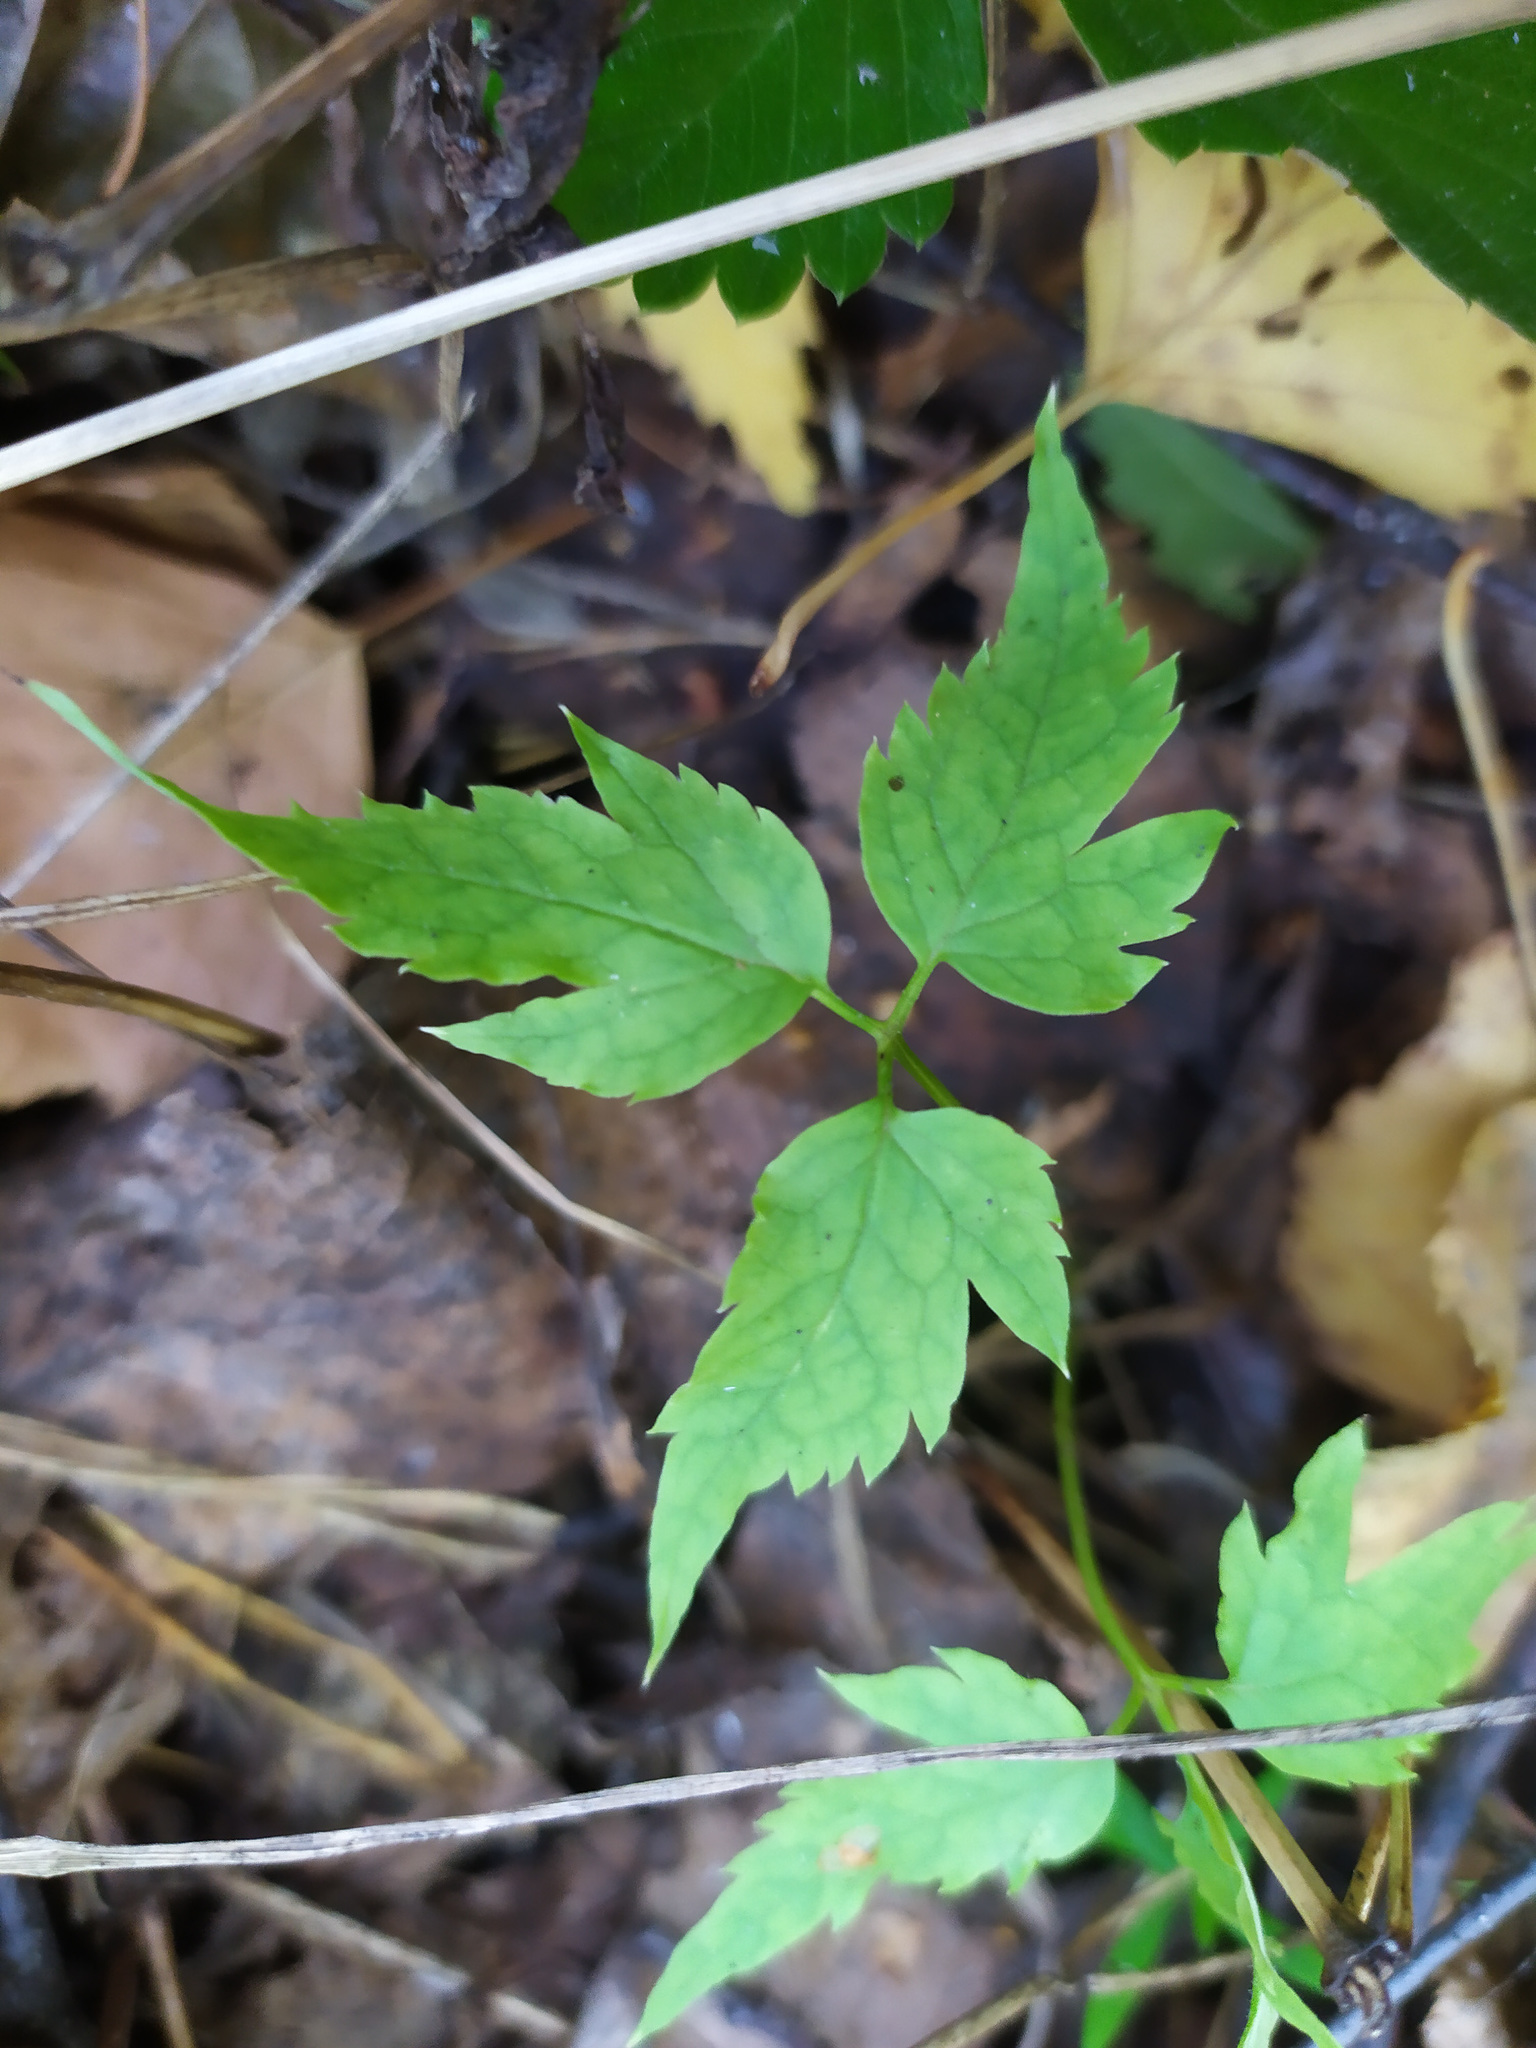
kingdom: Plantae
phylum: Tracheophyta
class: Magnoliopsida
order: Ranunculales
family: Ranunculaceae
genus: Clematis
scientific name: Clematis sibirica
